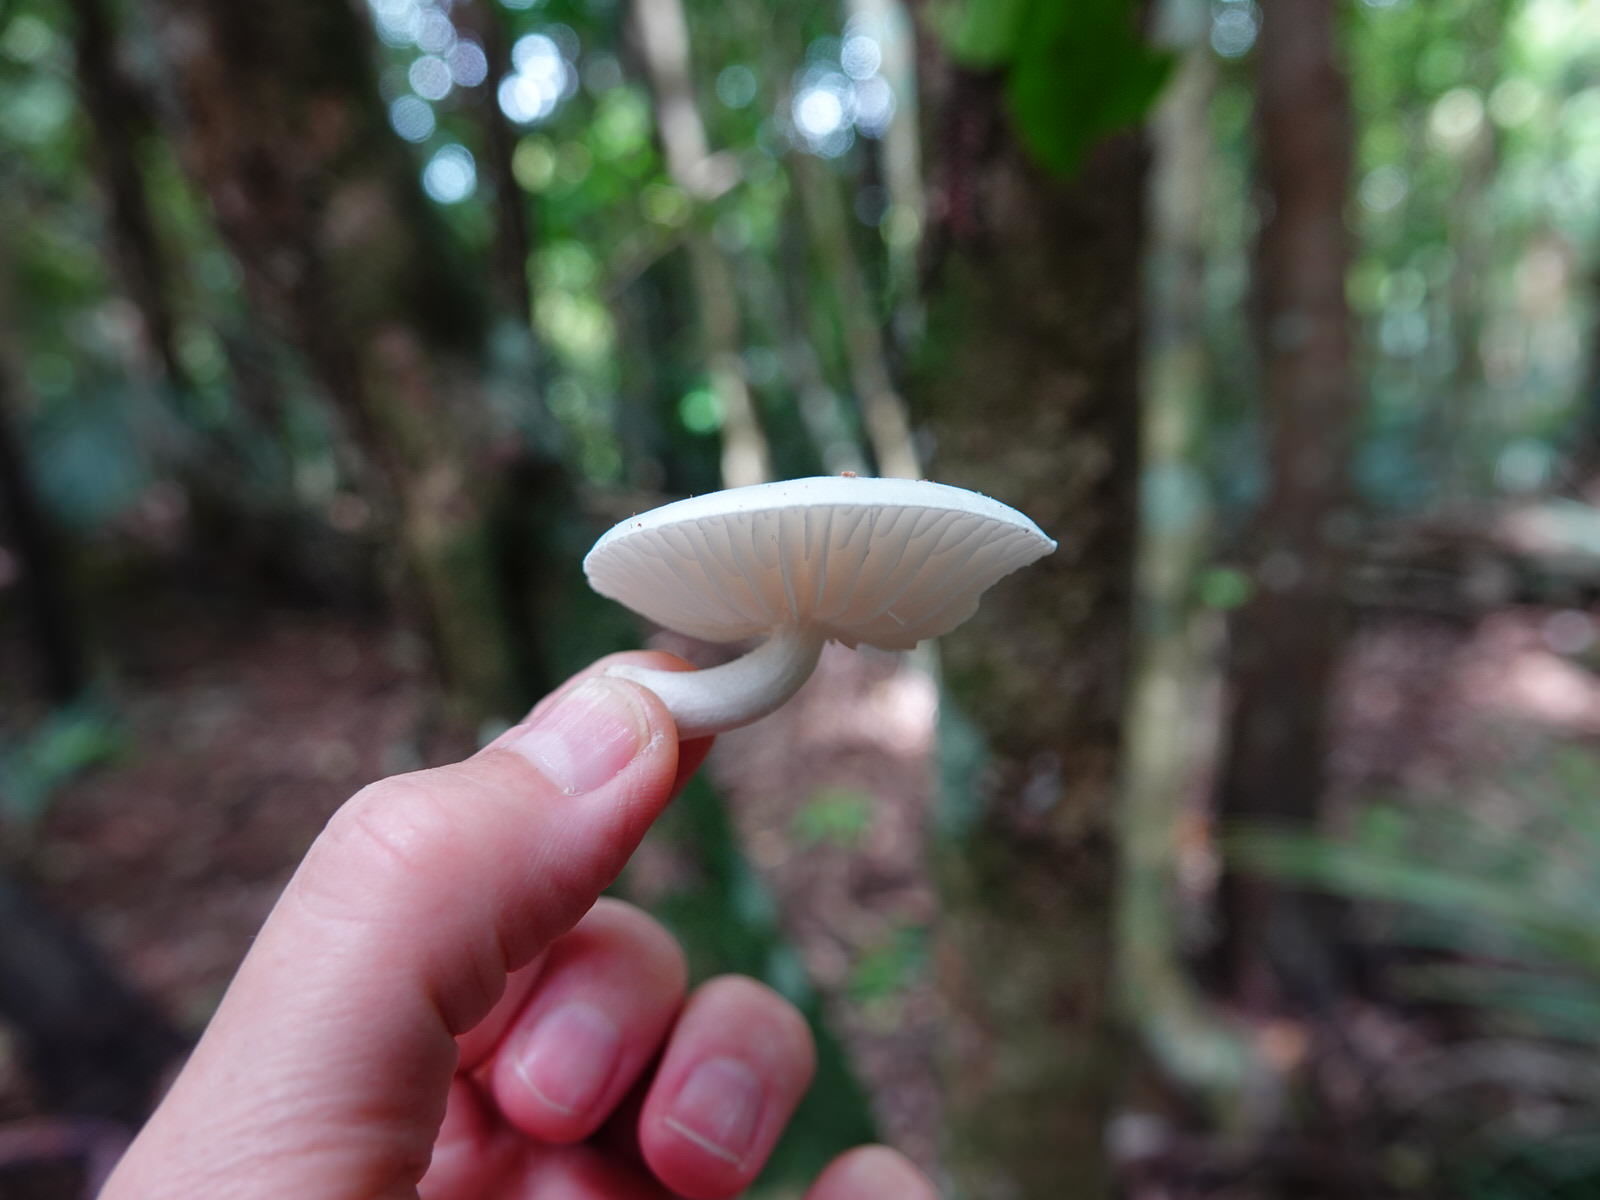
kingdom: Fungi
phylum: Basidiomycota
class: Agaricomycetes
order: Agaricales
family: Physalacriaceae
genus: Oudemansiella
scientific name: Oudemansiella australis
